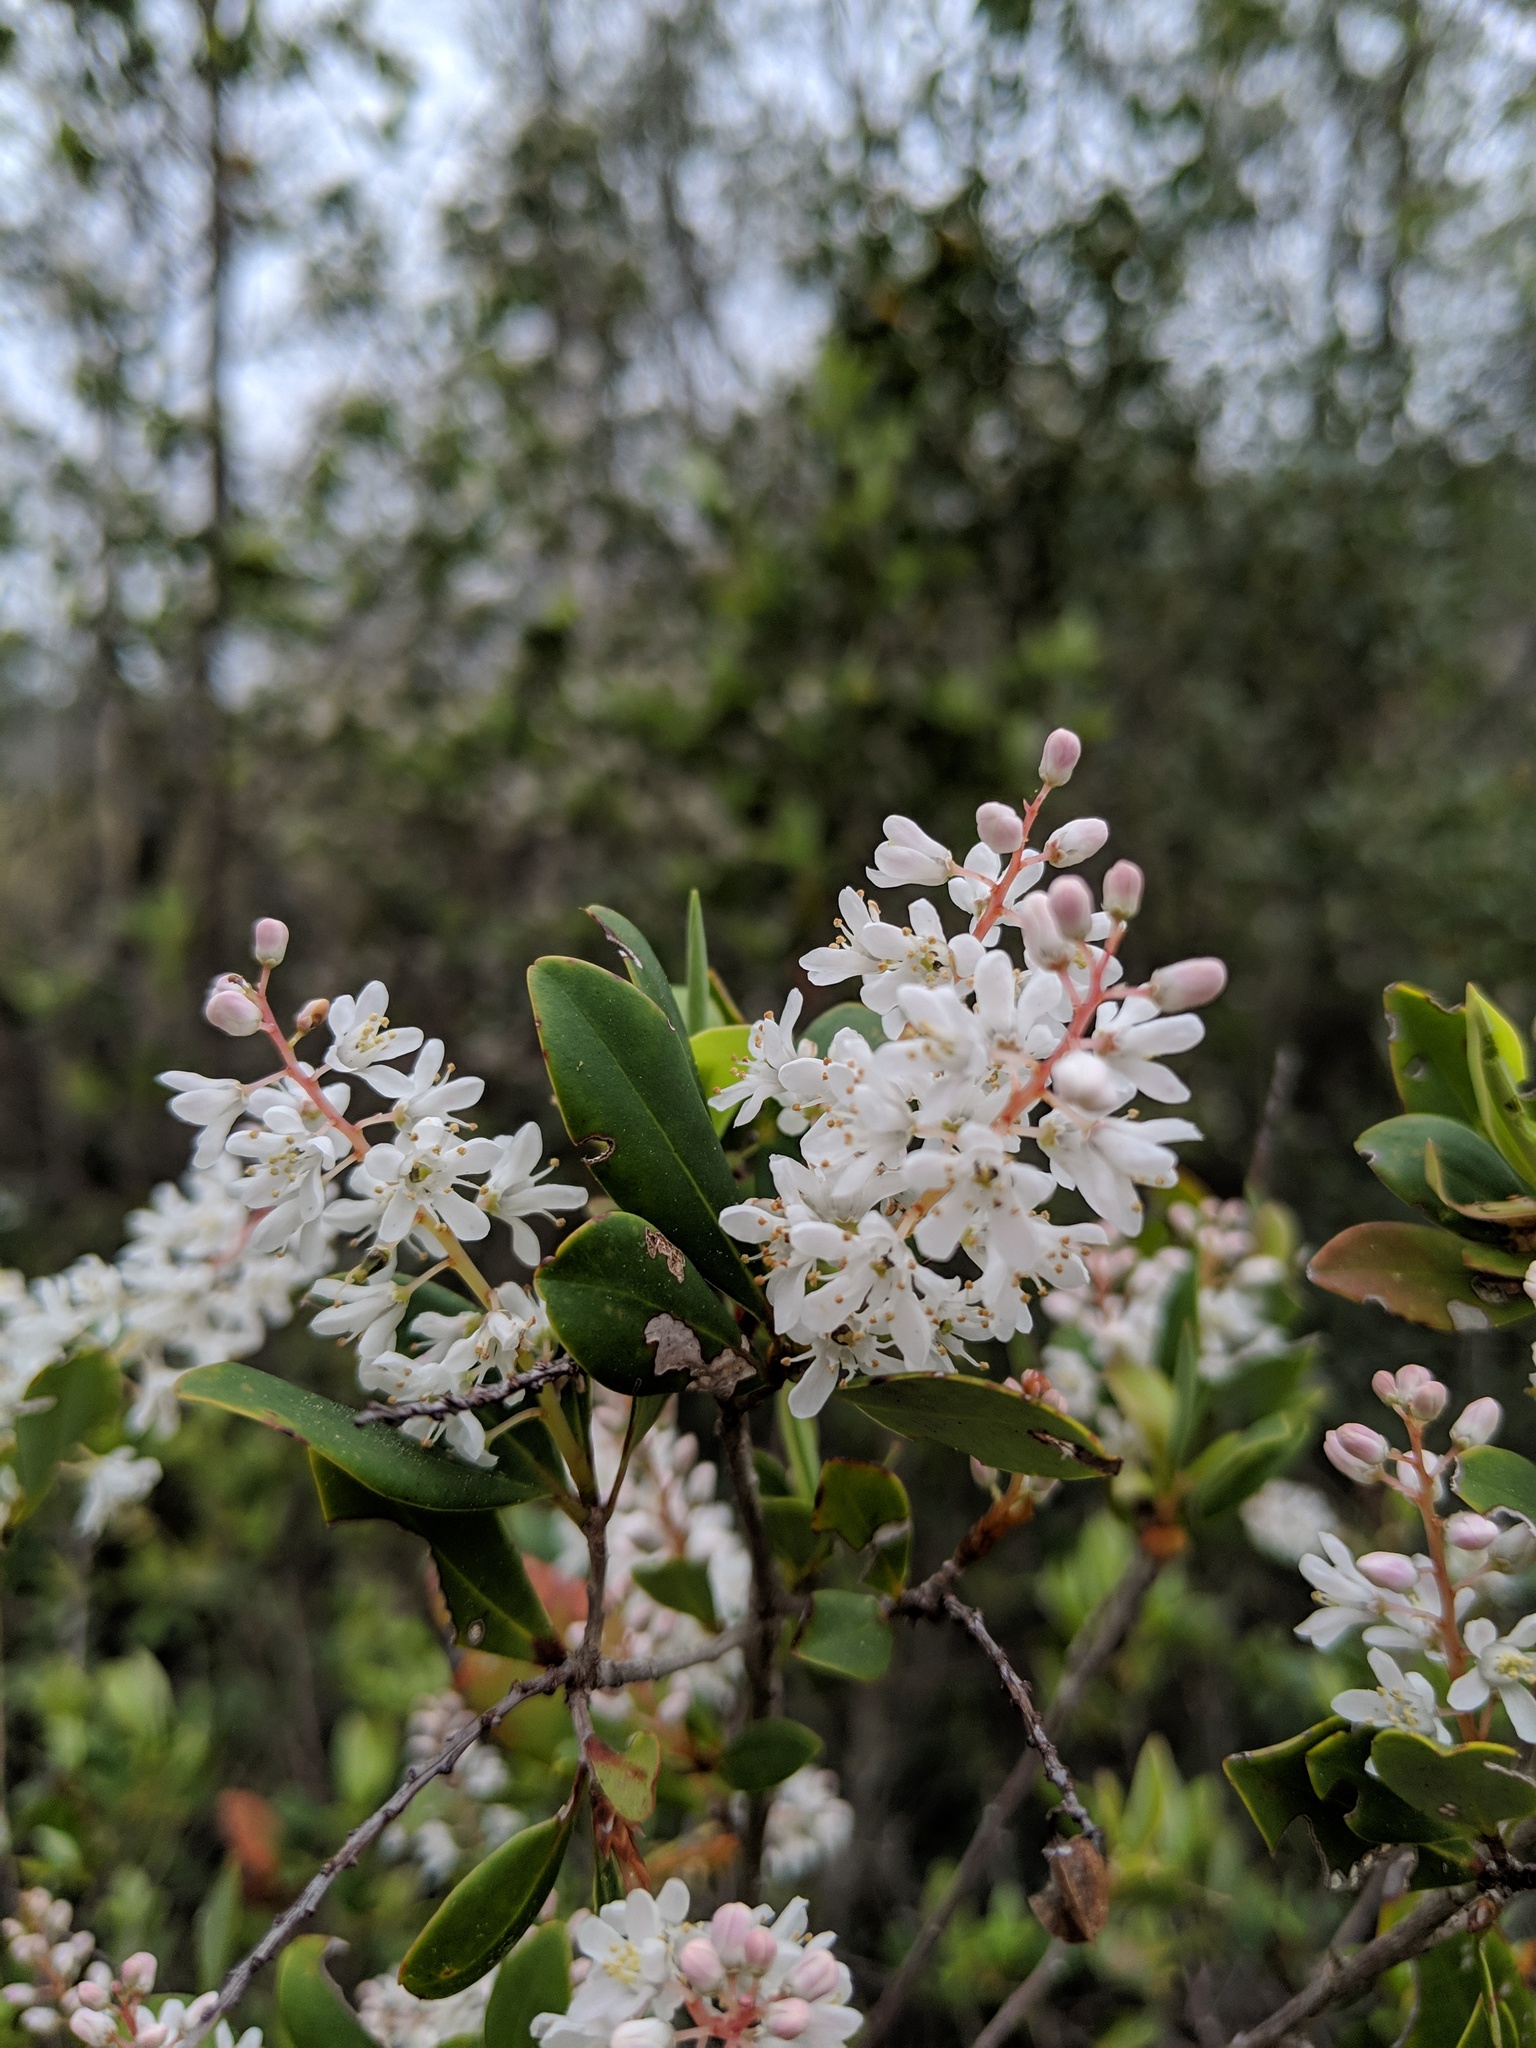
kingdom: Plantae
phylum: Tracheophyta
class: Magnoliopsida
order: Ericales
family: Cyrillaceae
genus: Cliftonia
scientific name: Cliftonia monophylla
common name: Titi
